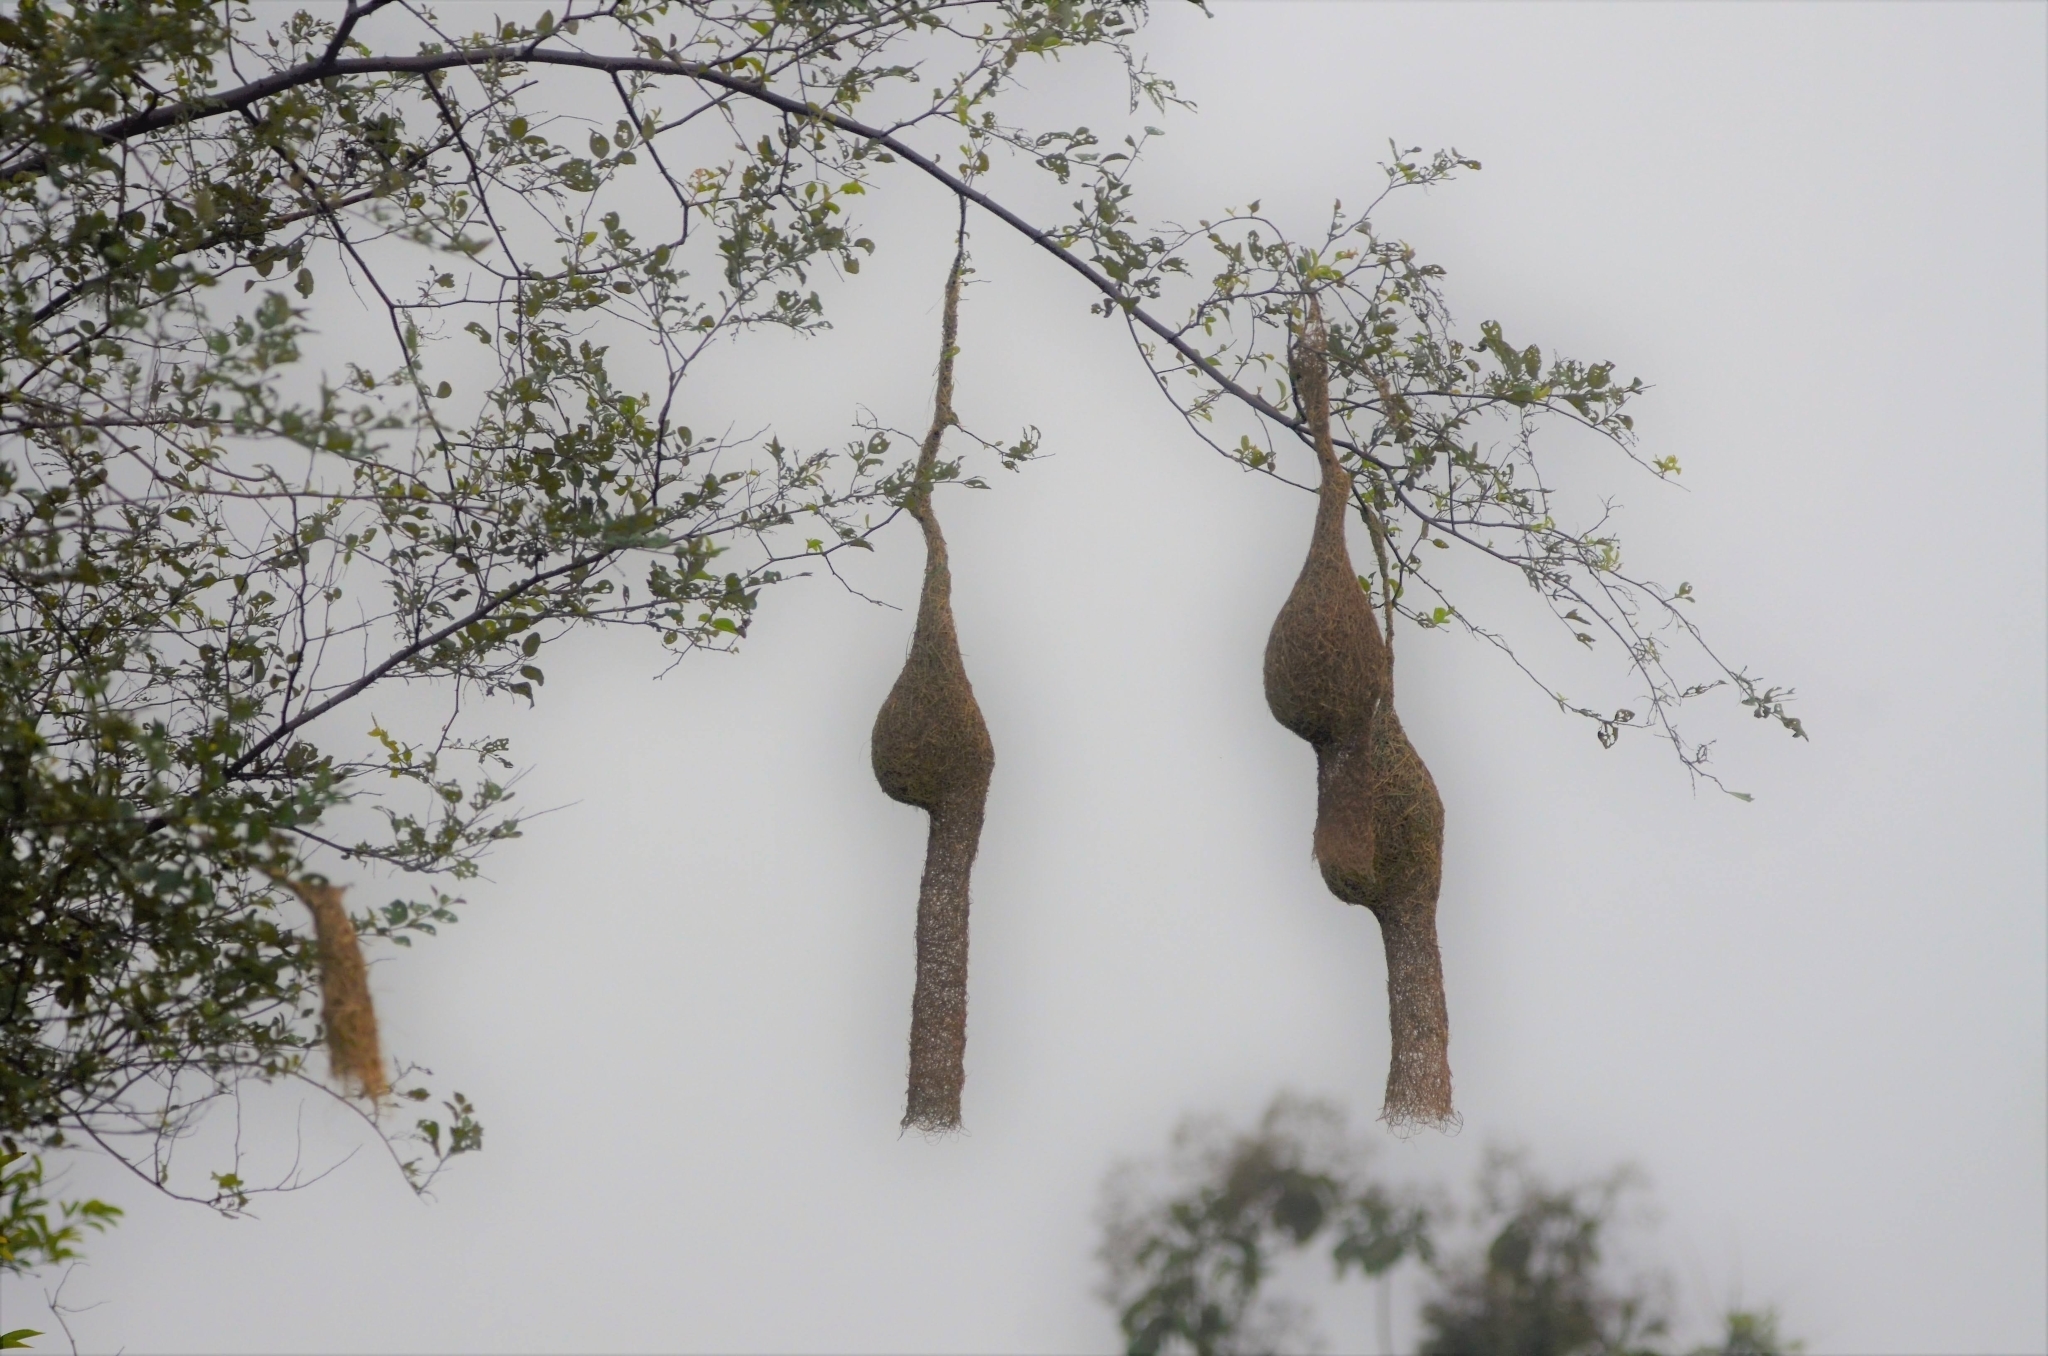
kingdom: Animalia
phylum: Chordata
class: Aves
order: Passeriformes
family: Ploceidae
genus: Ploceus
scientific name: Ploceus philippinus
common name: Baya weaver
